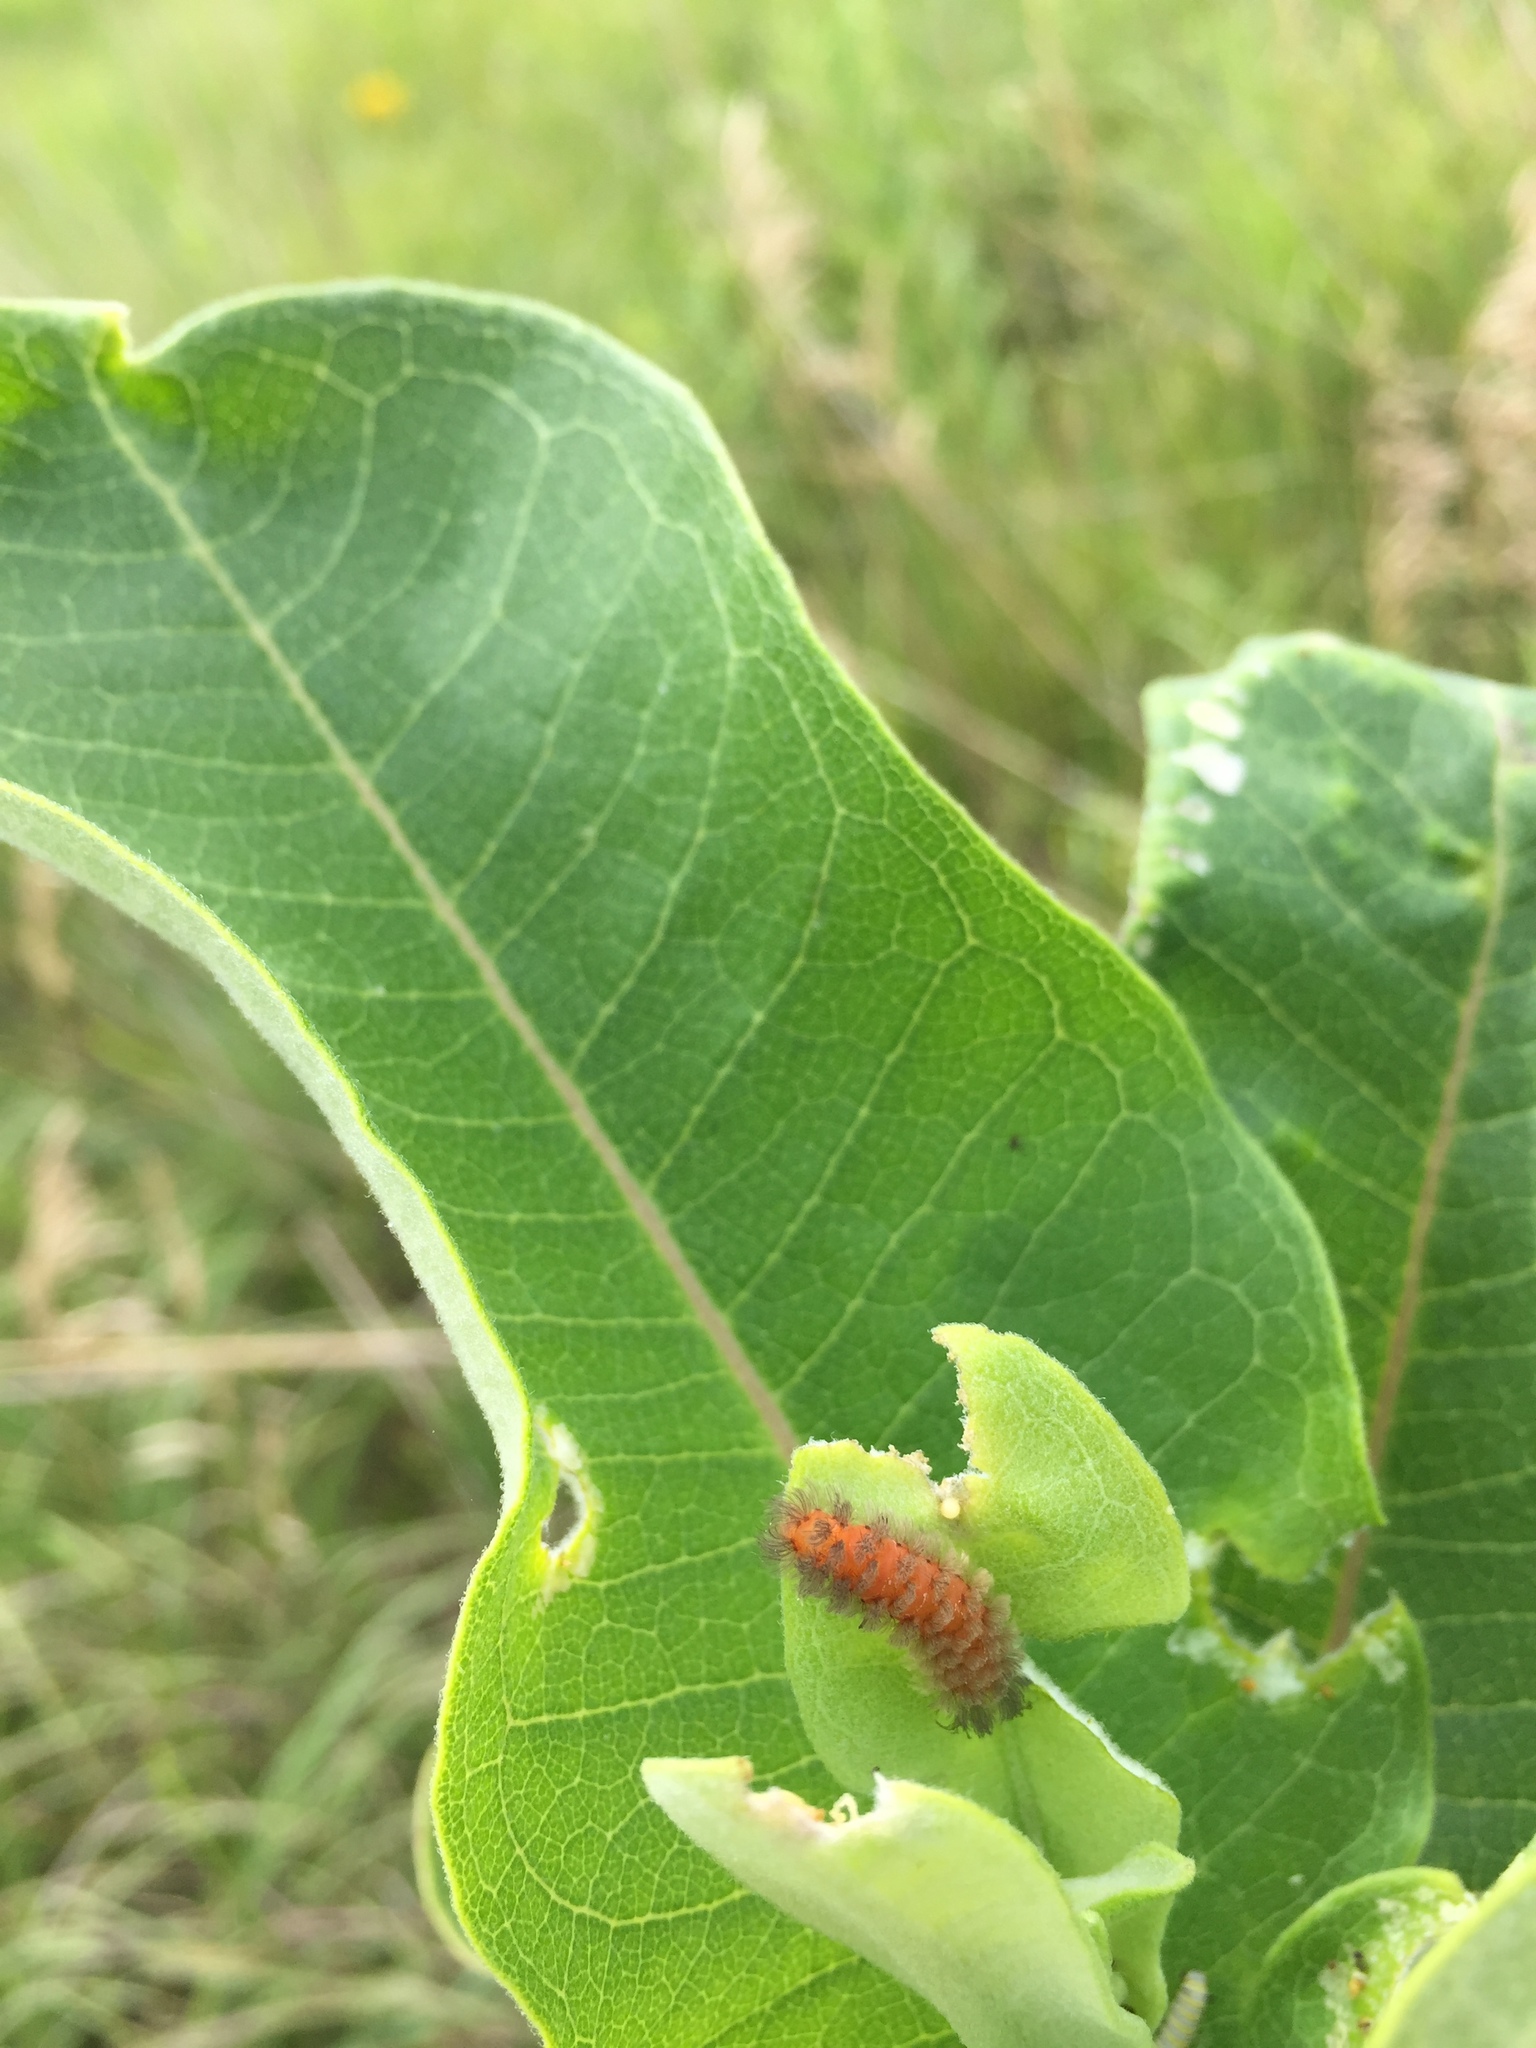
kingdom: Animalia
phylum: Arthropoda
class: Insecta
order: Lepidoptera
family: Erebidae
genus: Cycnia
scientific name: Cycnia collaris
